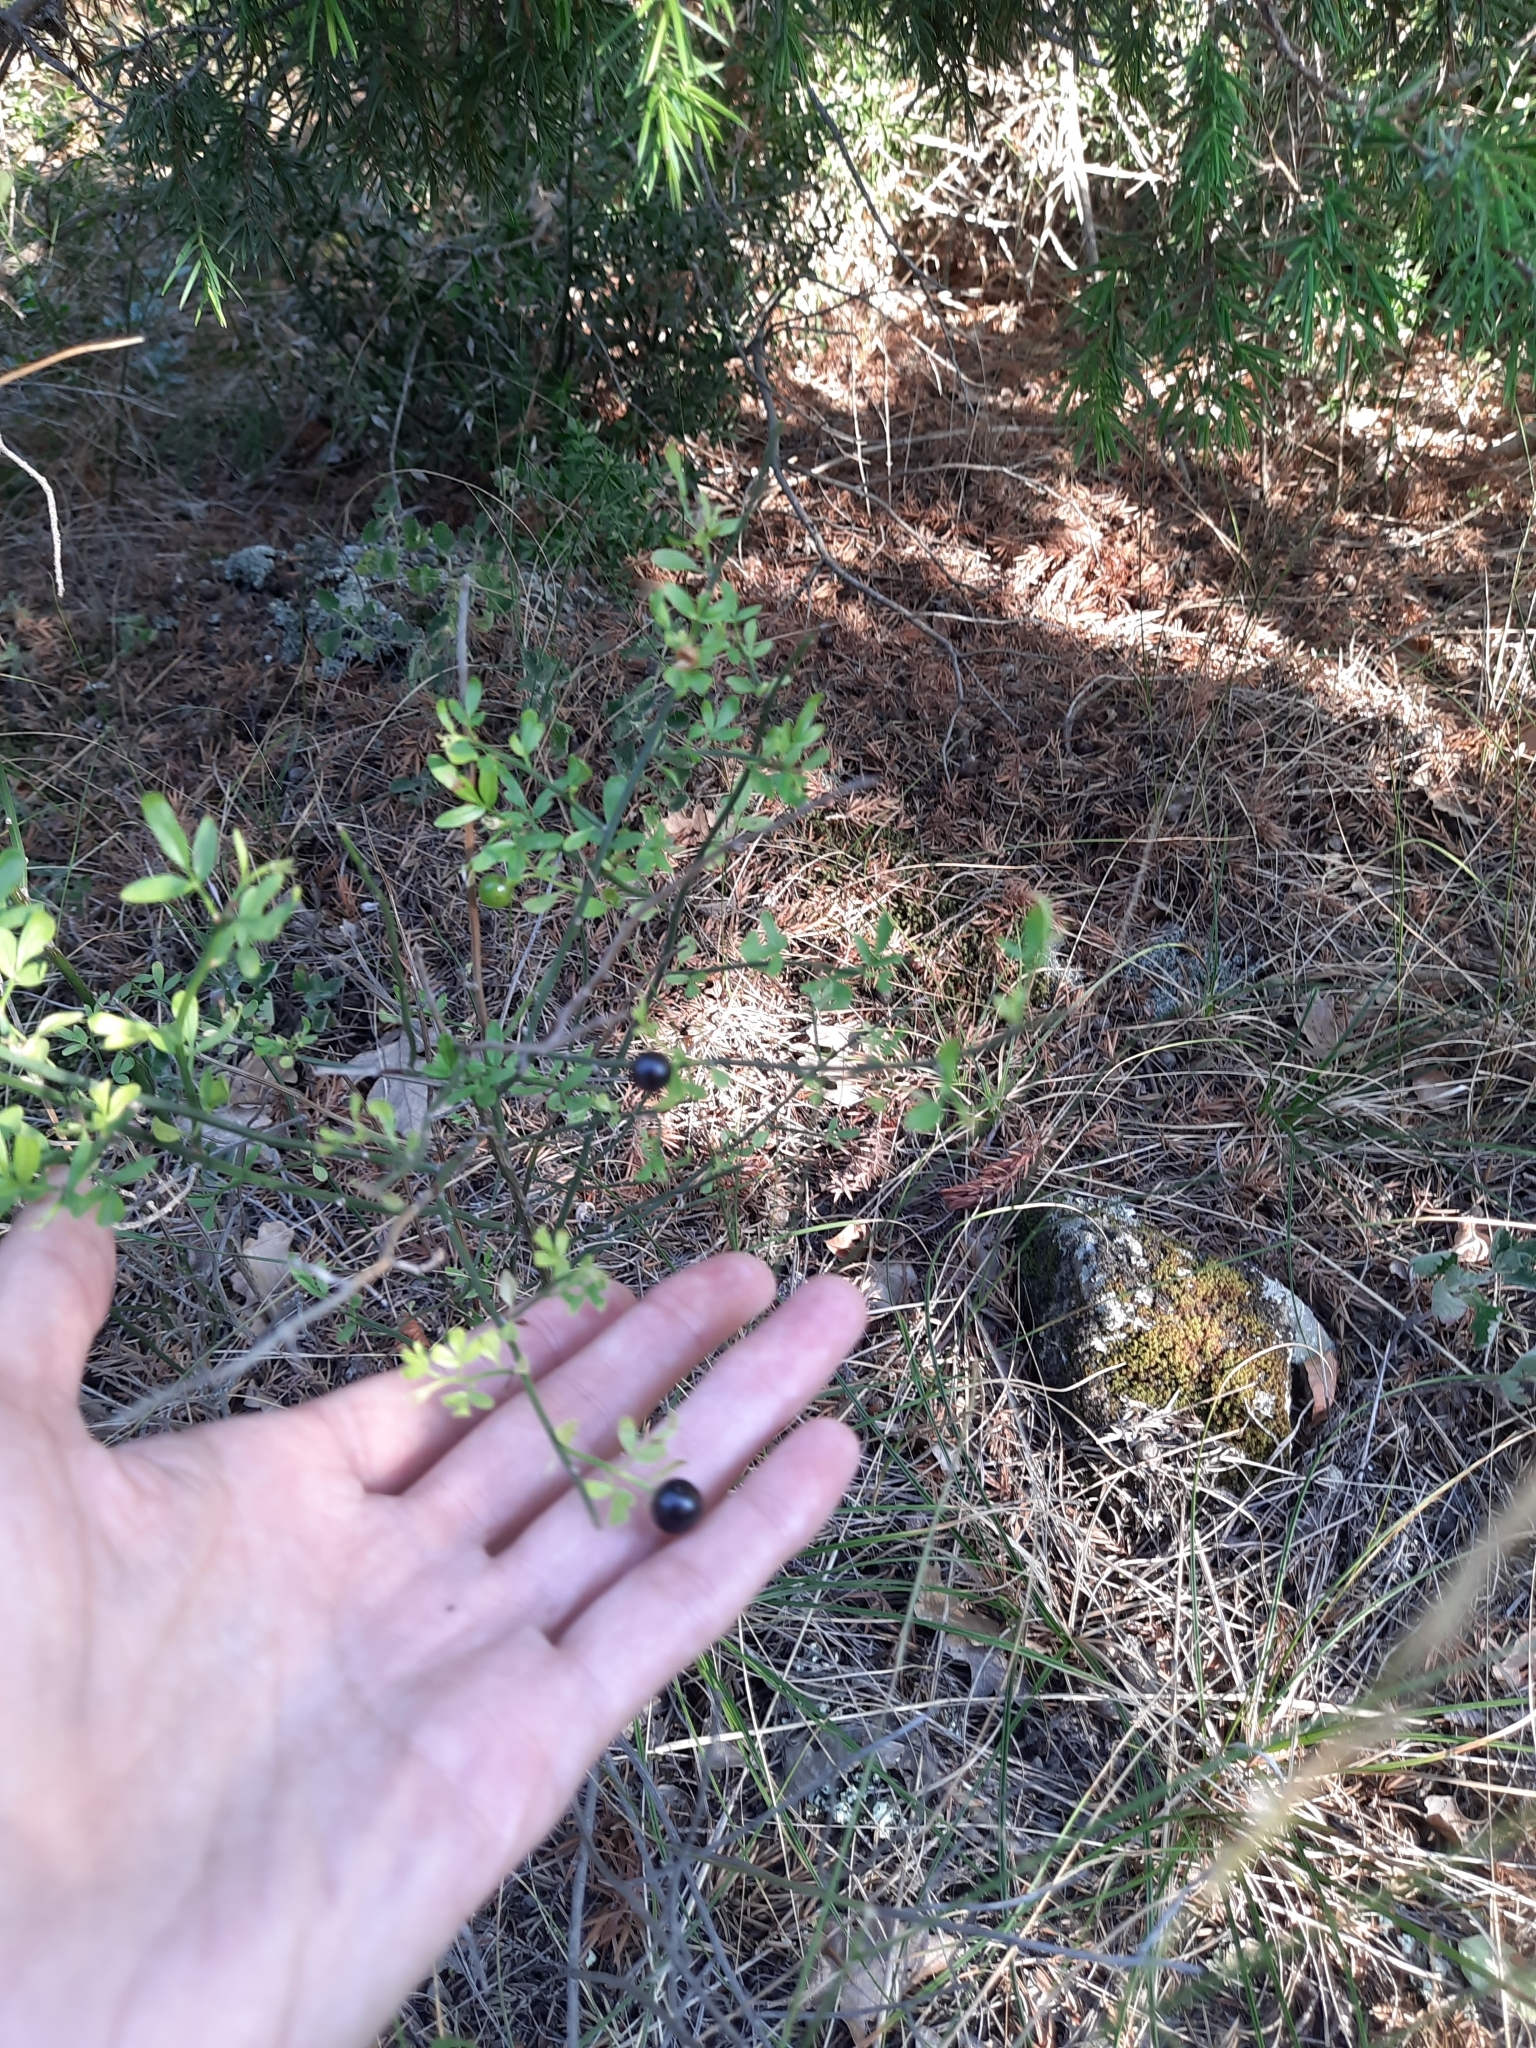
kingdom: Plantae
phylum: Tracheophyta
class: Magnoliopsida
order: Lamiales
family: Oleaceae
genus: Chrysojasminum
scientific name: Chrysojasminum fruticans
